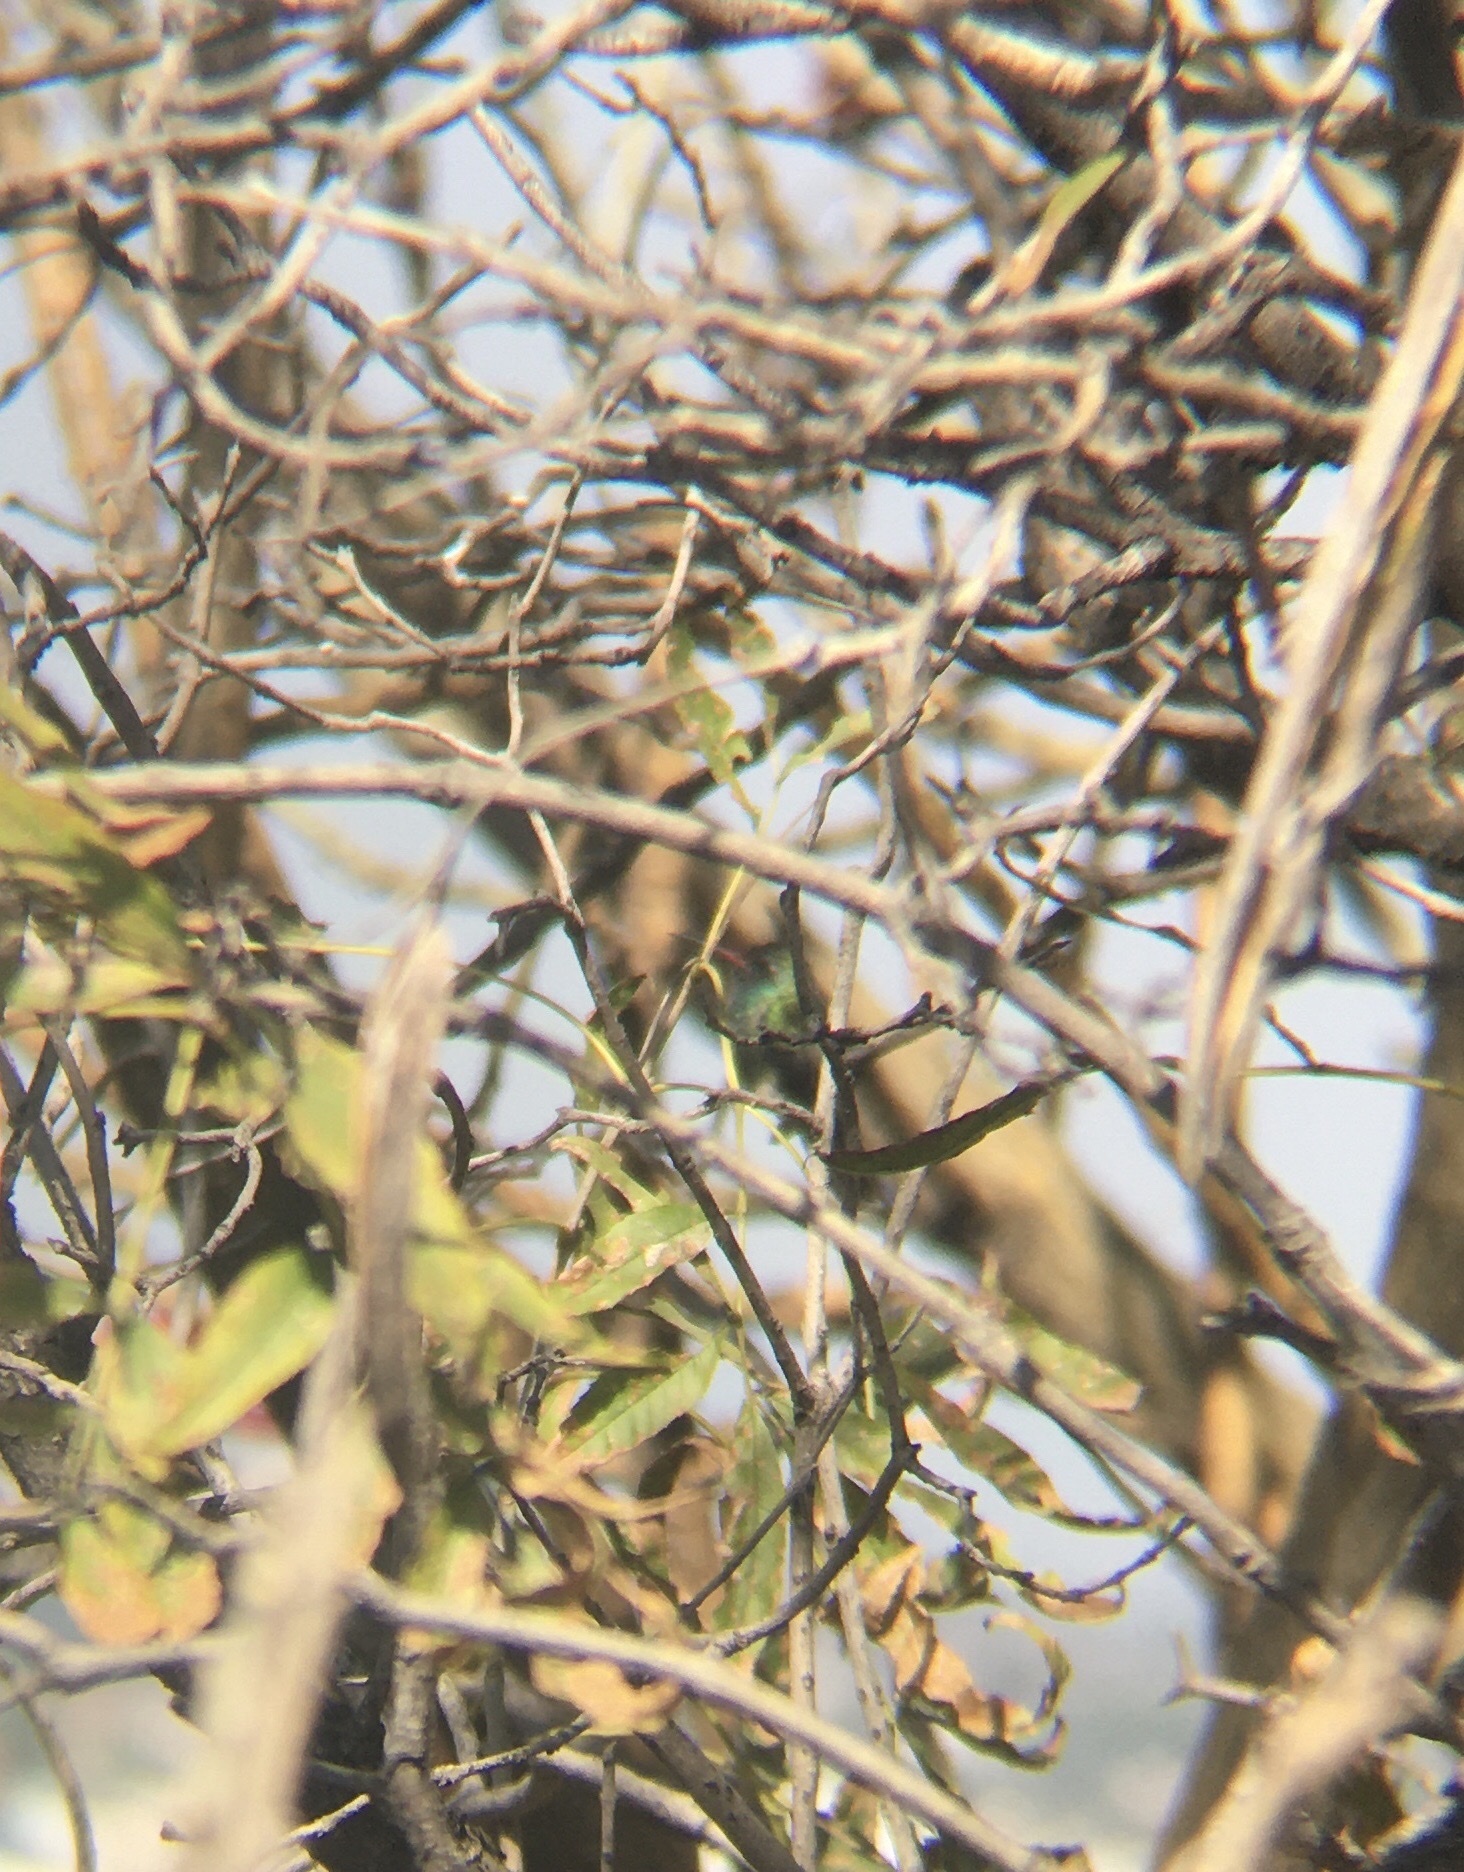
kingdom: Animalia
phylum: Chordata
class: Aves
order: Apodiformes
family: Trochilidae
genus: Cynanthus
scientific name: Cynanthus latirostris
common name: Broad-billed hummingbird
